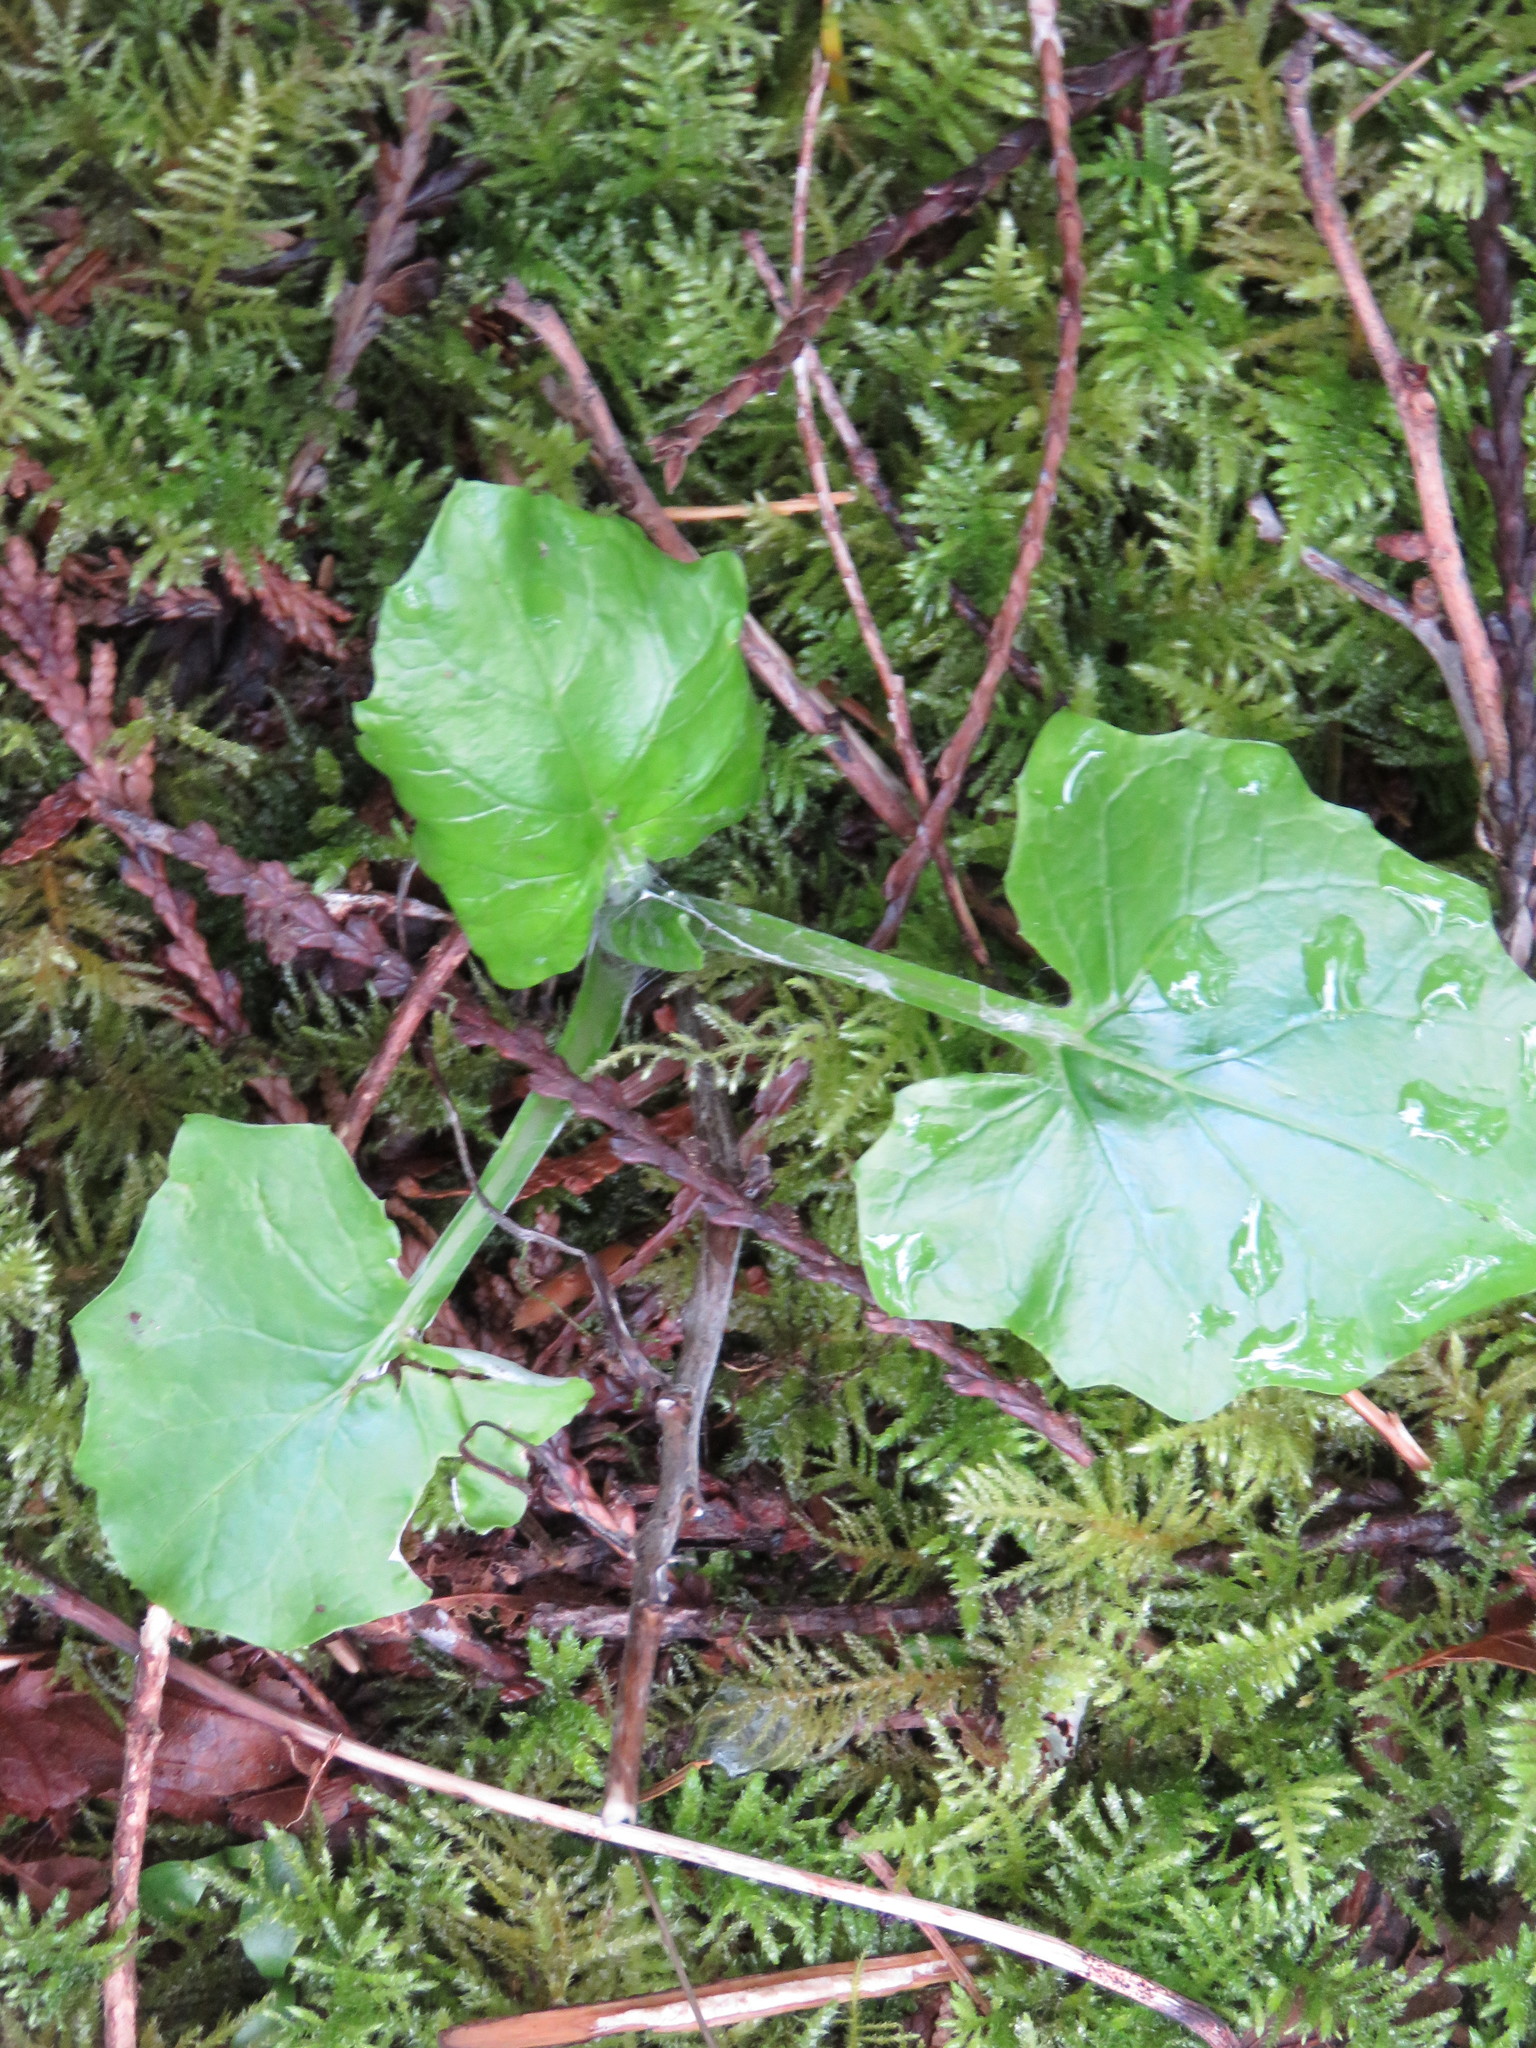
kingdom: Plantae
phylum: Tracheophyta
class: Magnoliopsida
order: Asterales
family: Asteraceae
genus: Adenocaulon
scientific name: Adenocaulon bicolor
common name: Trailplant
